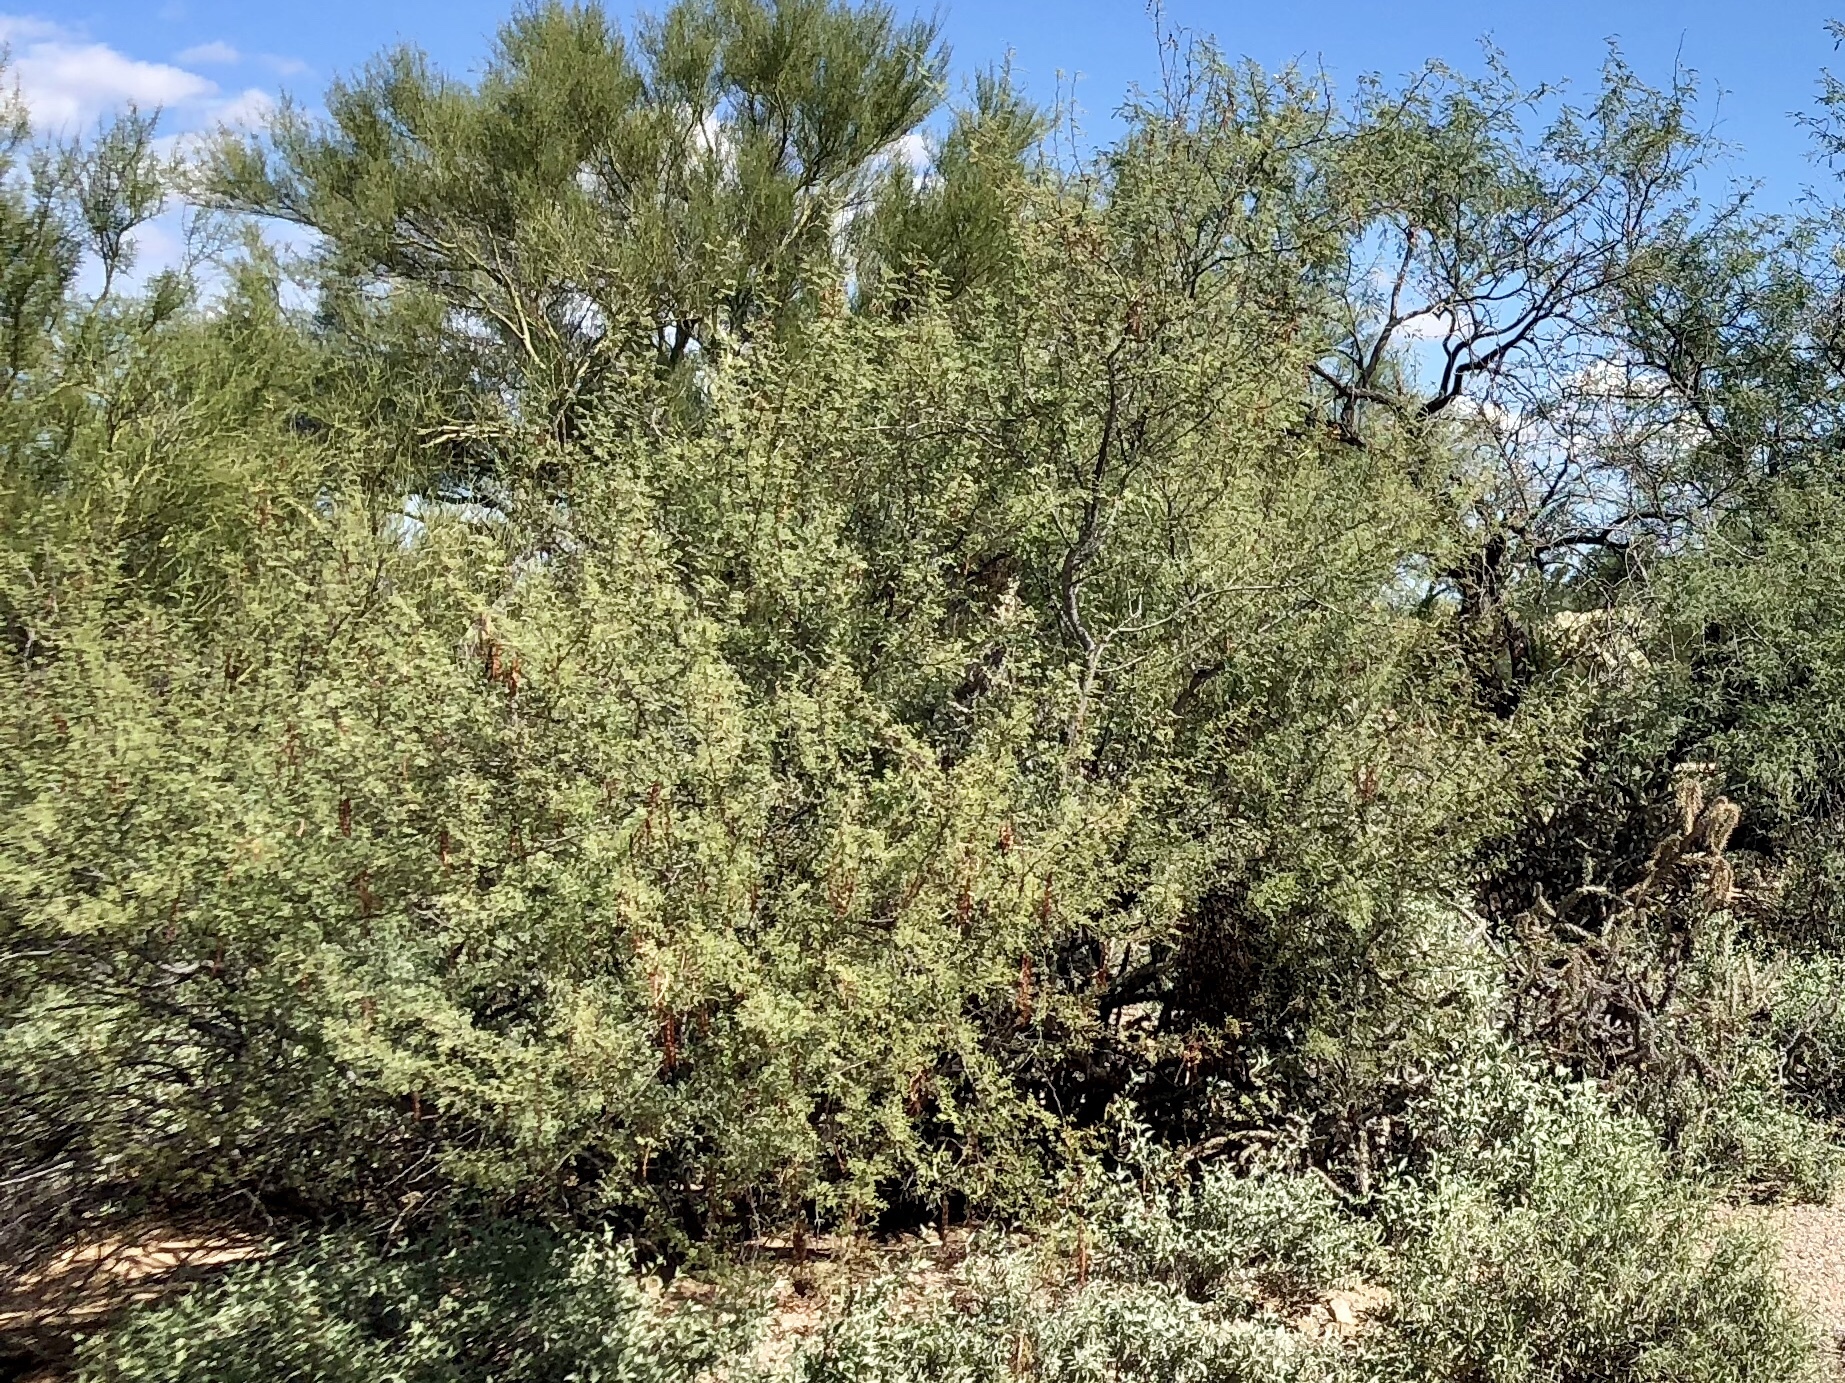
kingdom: Plantae
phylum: Tracheophyta
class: Magnoliopsida
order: Fabales
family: Fabaceae
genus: Vachellia
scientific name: Vachellia constricta
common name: Mescat acacia
